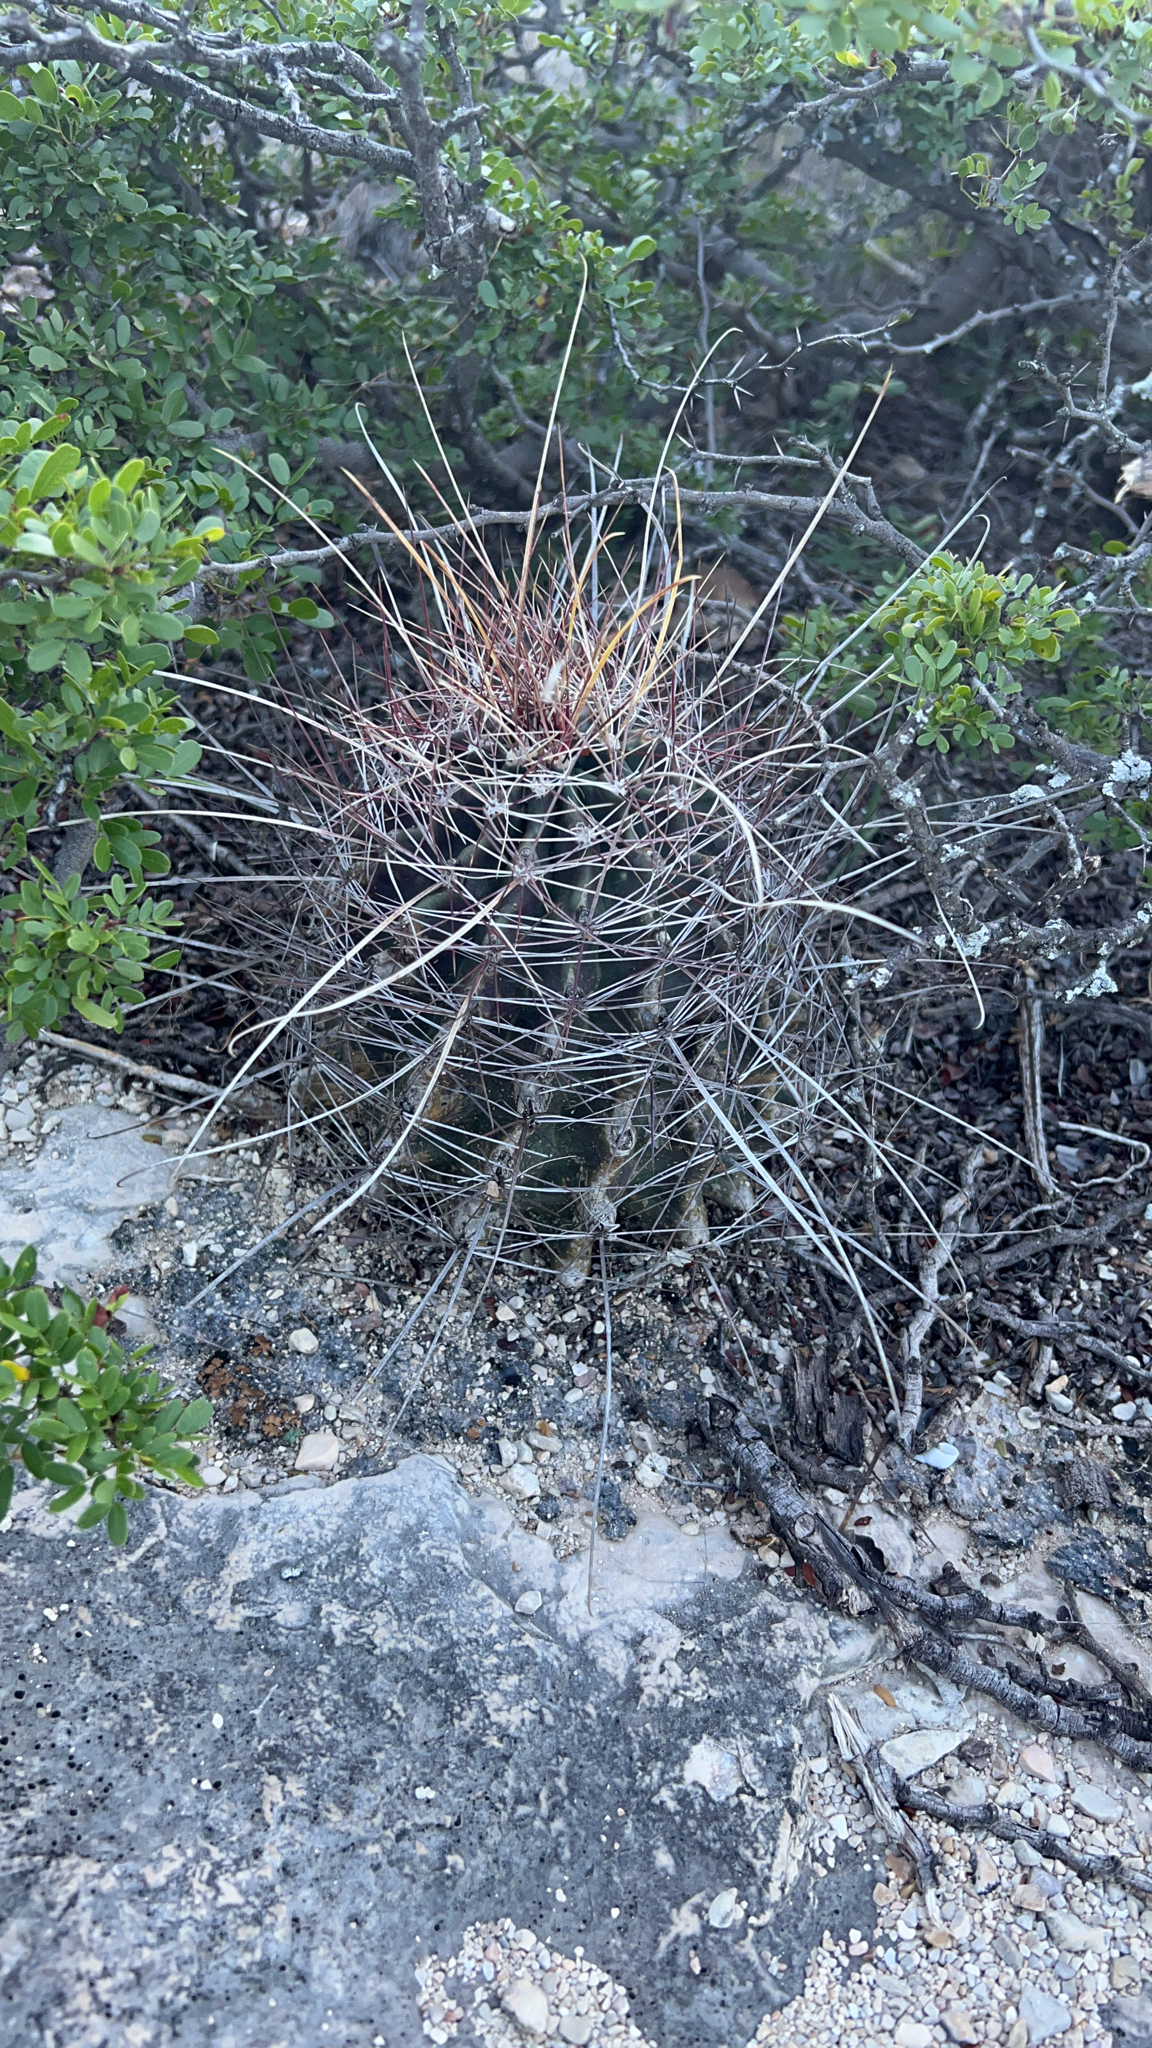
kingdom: Plantae
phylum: Tracheophyta
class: Magnoliopsida
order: Caryophyllales
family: Cactaceae
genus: Bisnaga
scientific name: Bisnaga hamatacantha
